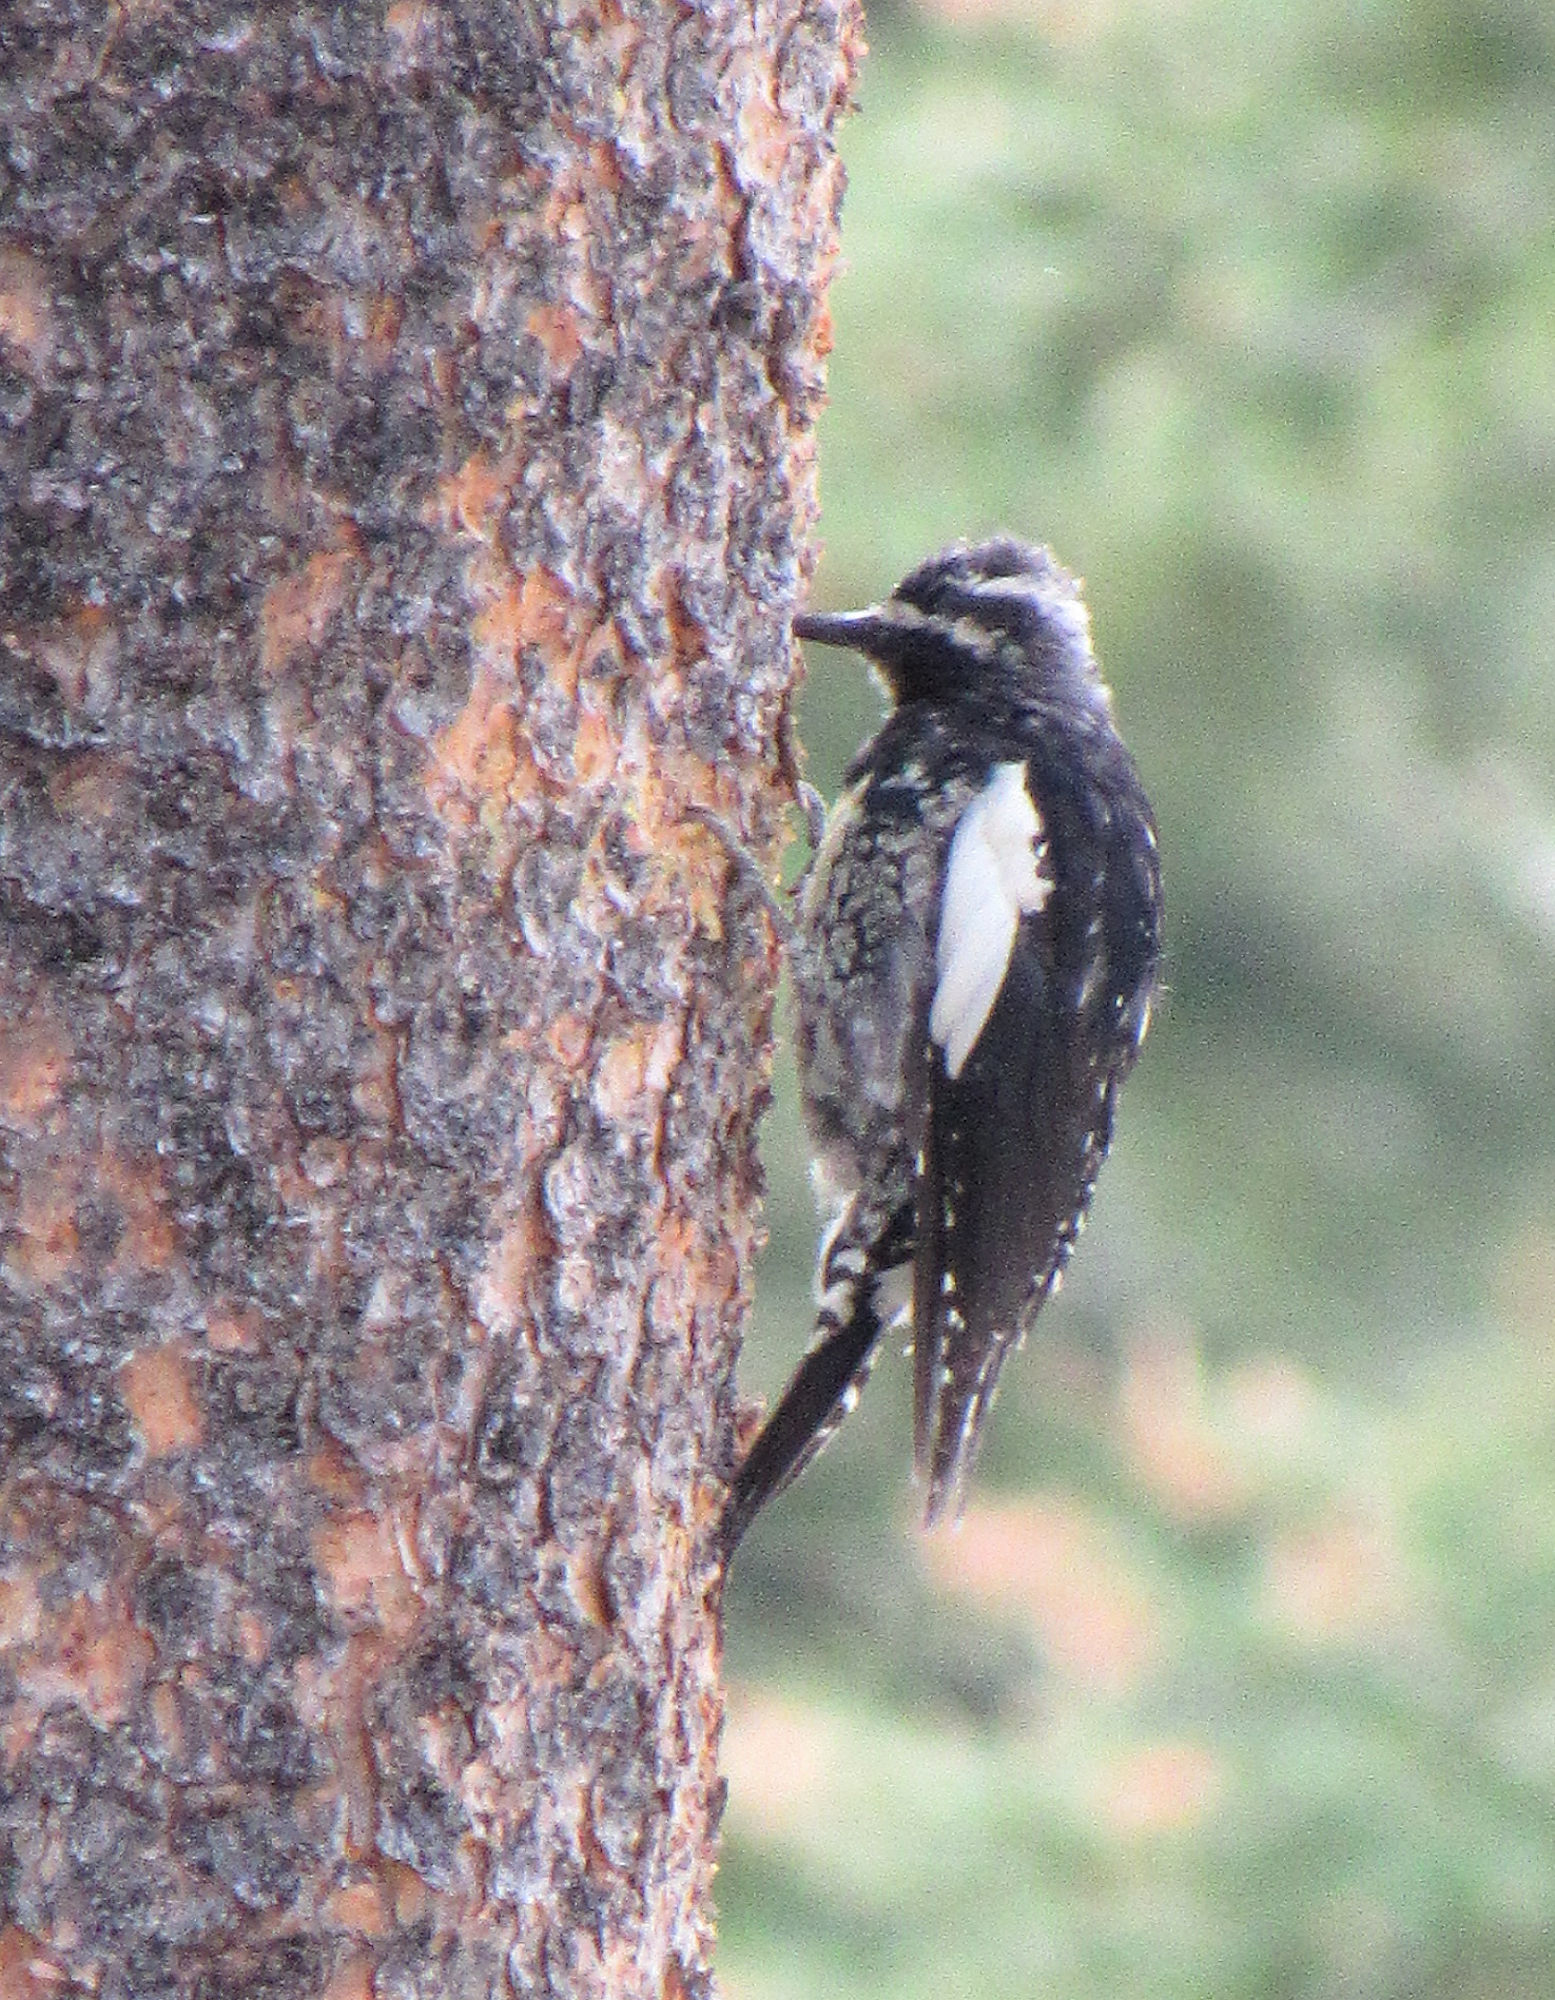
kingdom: Animalia
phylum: Chordata
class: Aves
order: Piciformes
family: Picidae
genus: Sphyrapicus
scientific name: Sphyrapicus thyroideus
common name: Williamson's sapsucker
